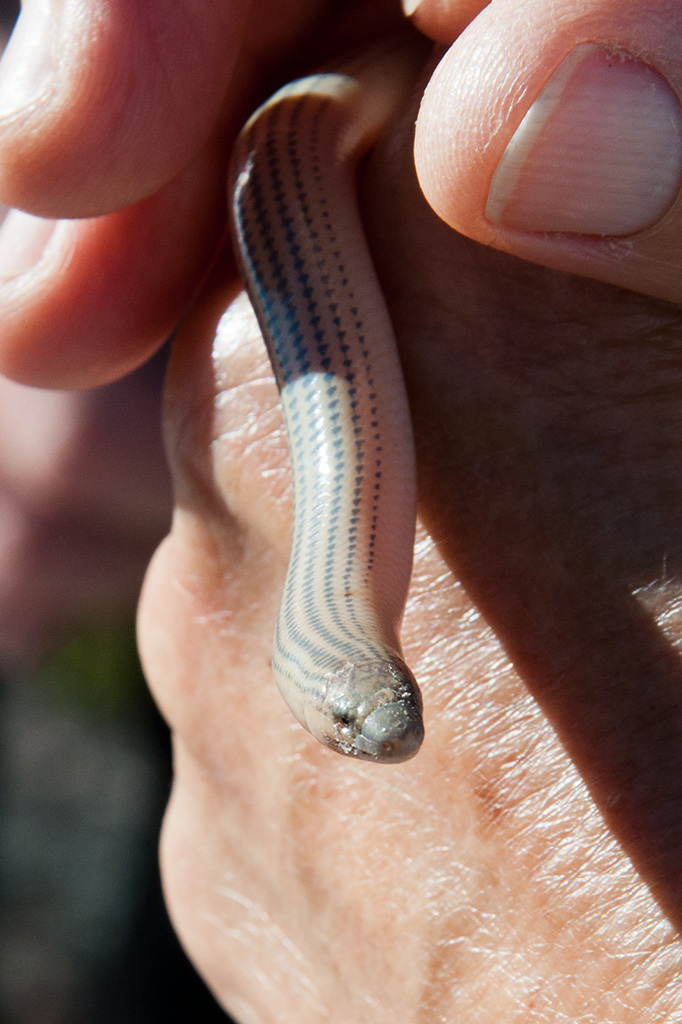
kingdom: Animalia
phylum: Chordata
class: Squamata
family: Scincidae
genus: Acontias
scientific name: Acontias meleagris
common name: Cape legless skink
